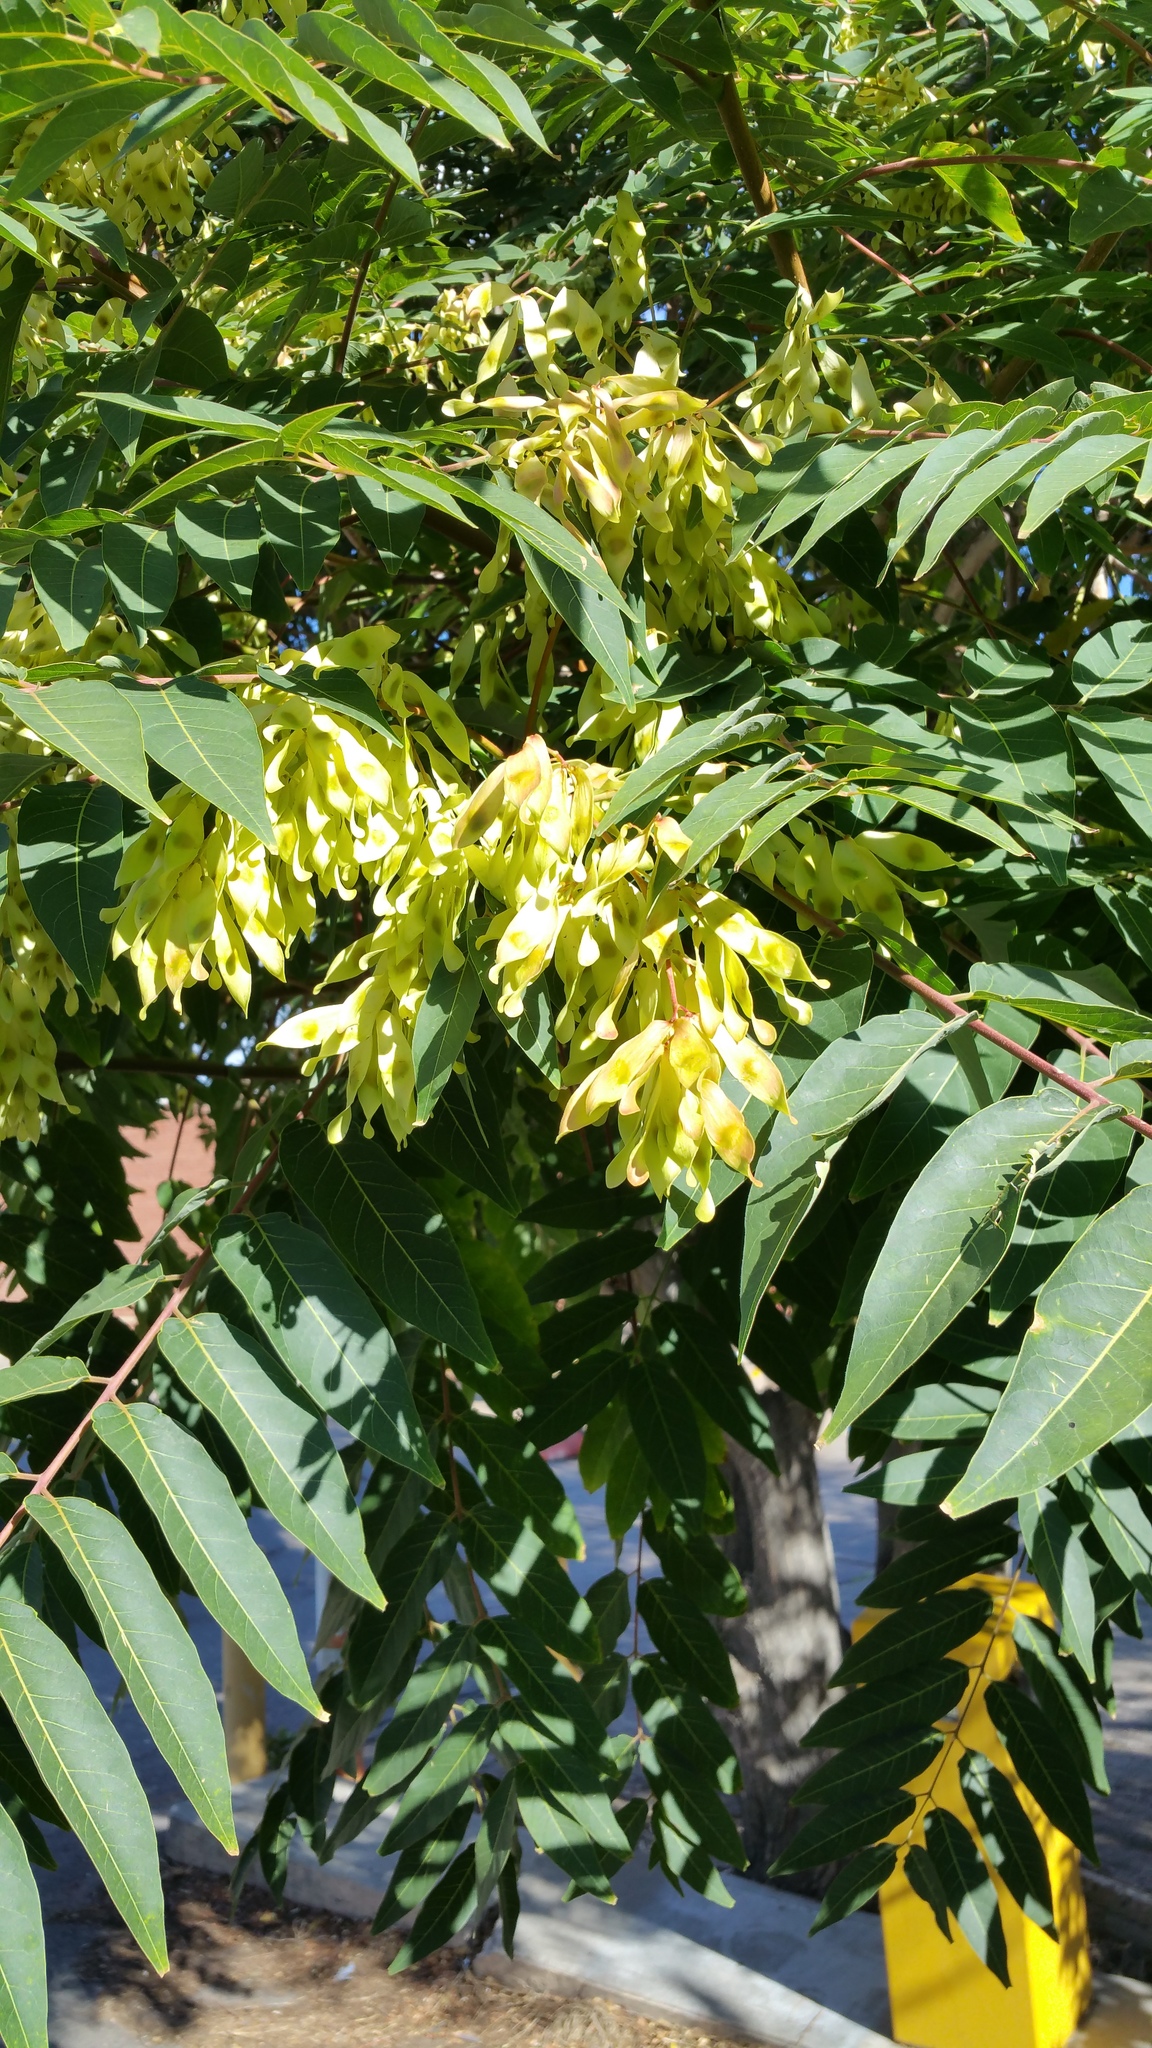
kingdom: Plantae
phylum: Tracheophyta
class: Magnoliopsida
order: Sapindales
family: Simaroubaceae
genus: Ailanthus
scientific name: Ailanthus altissima
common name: Tree-of-heaven
